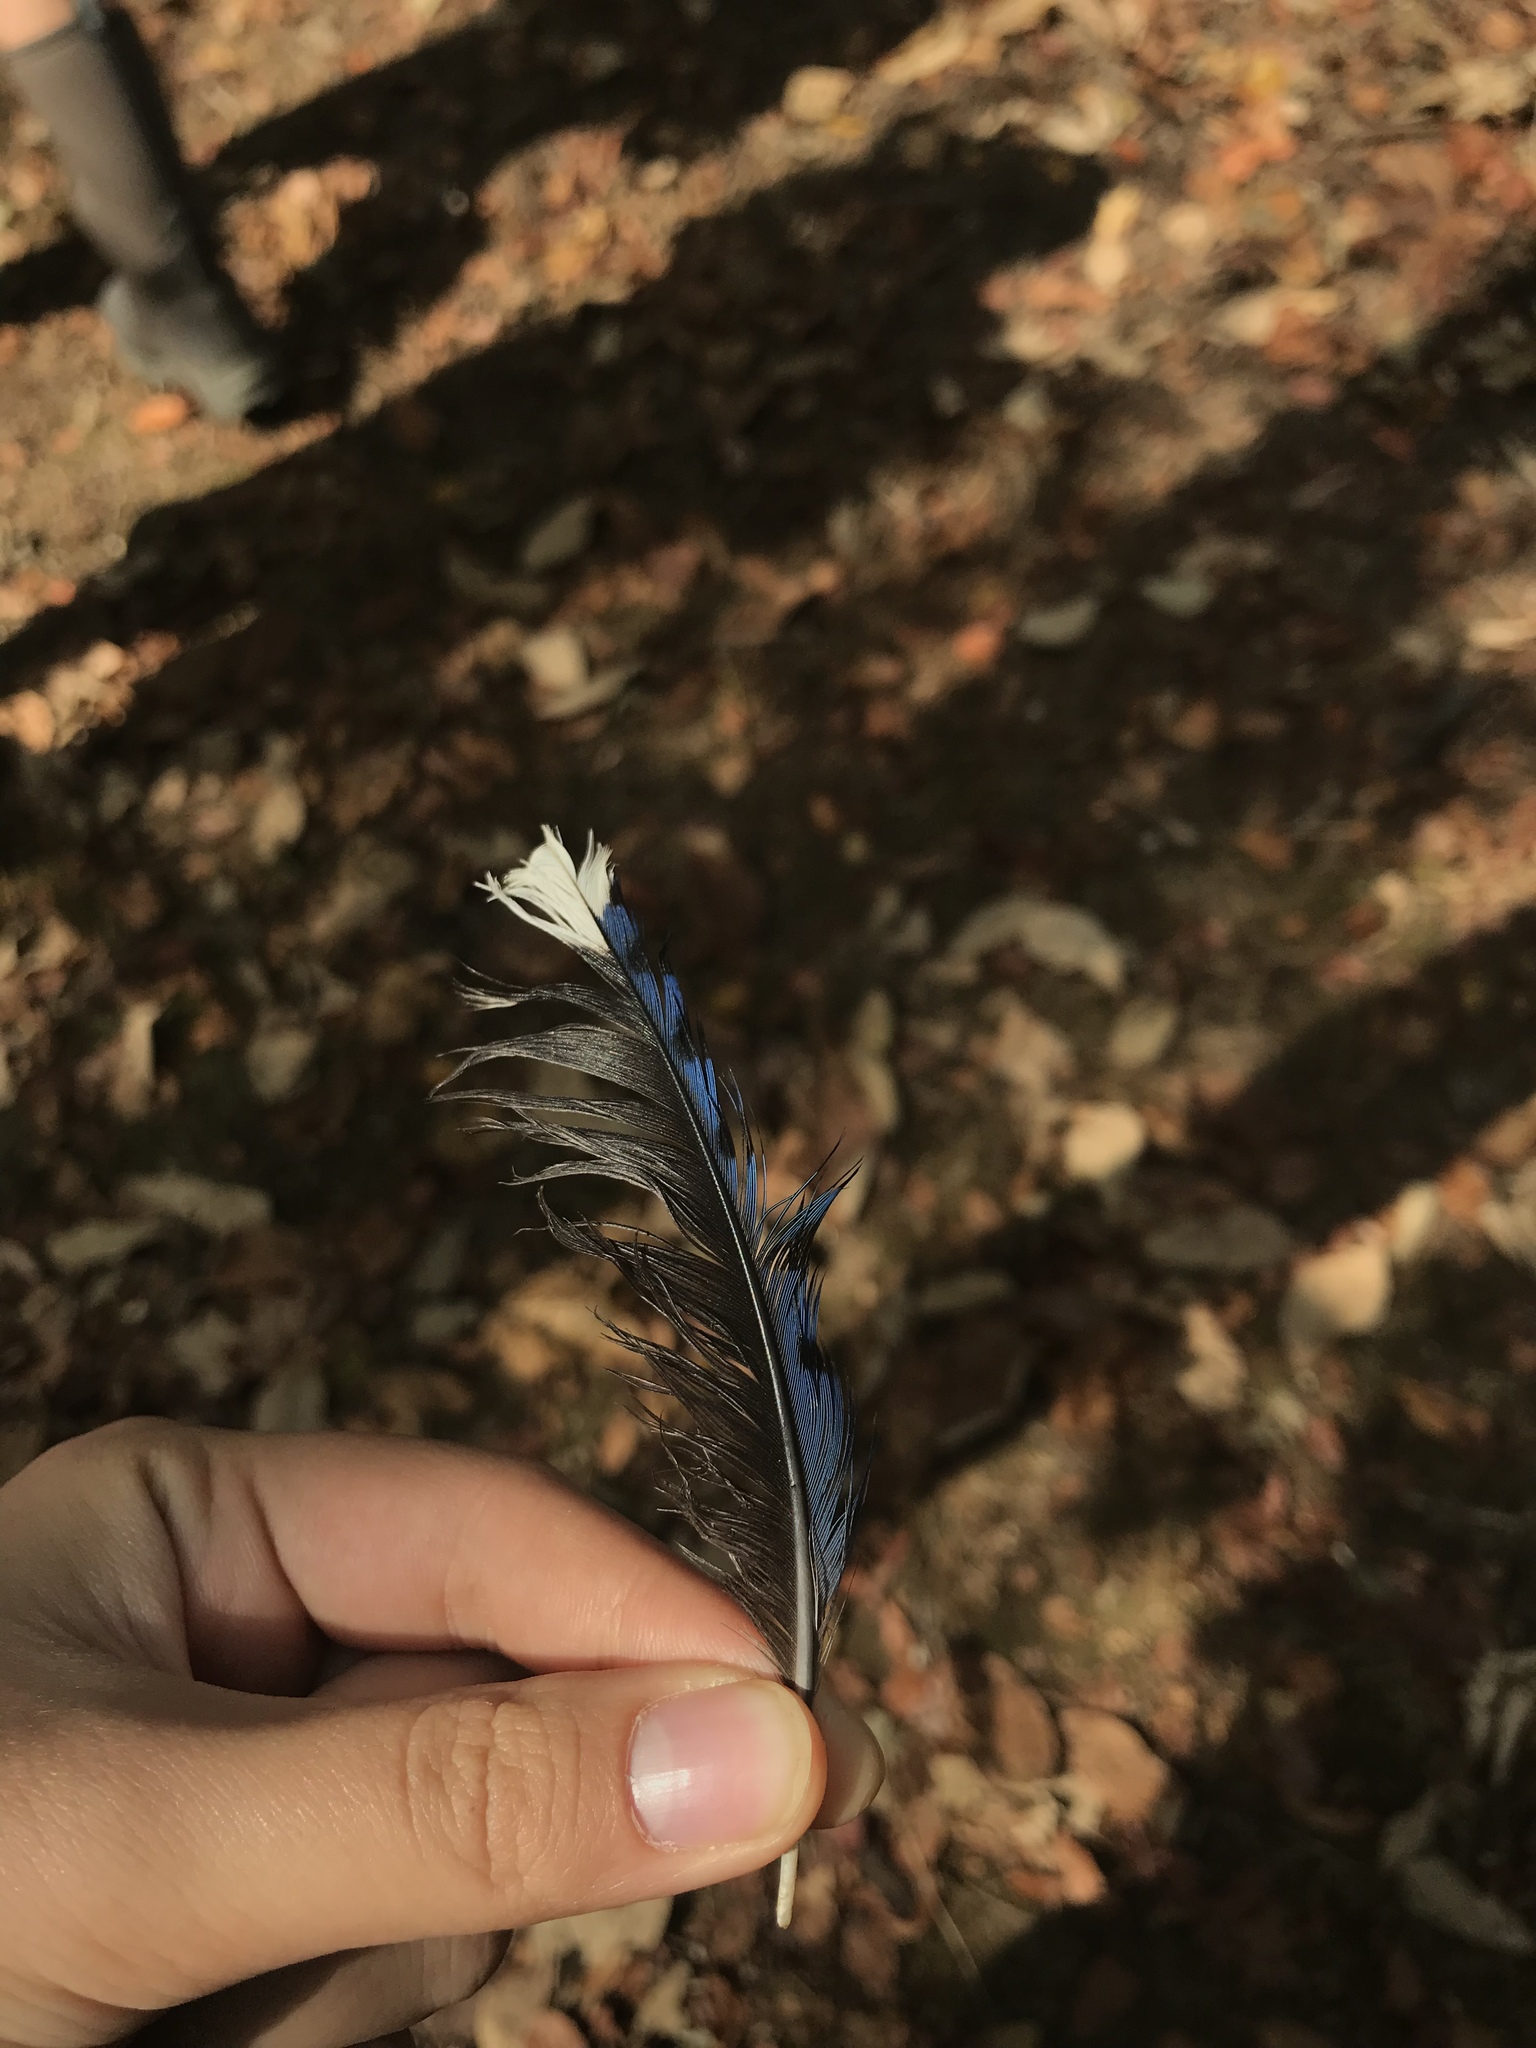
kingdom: Animalia
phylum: Chordata
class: Aves
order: Passeriformes
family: Corvidae
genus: Cyanocitta
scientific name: Cyanocitta cristata
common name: Blue jay
